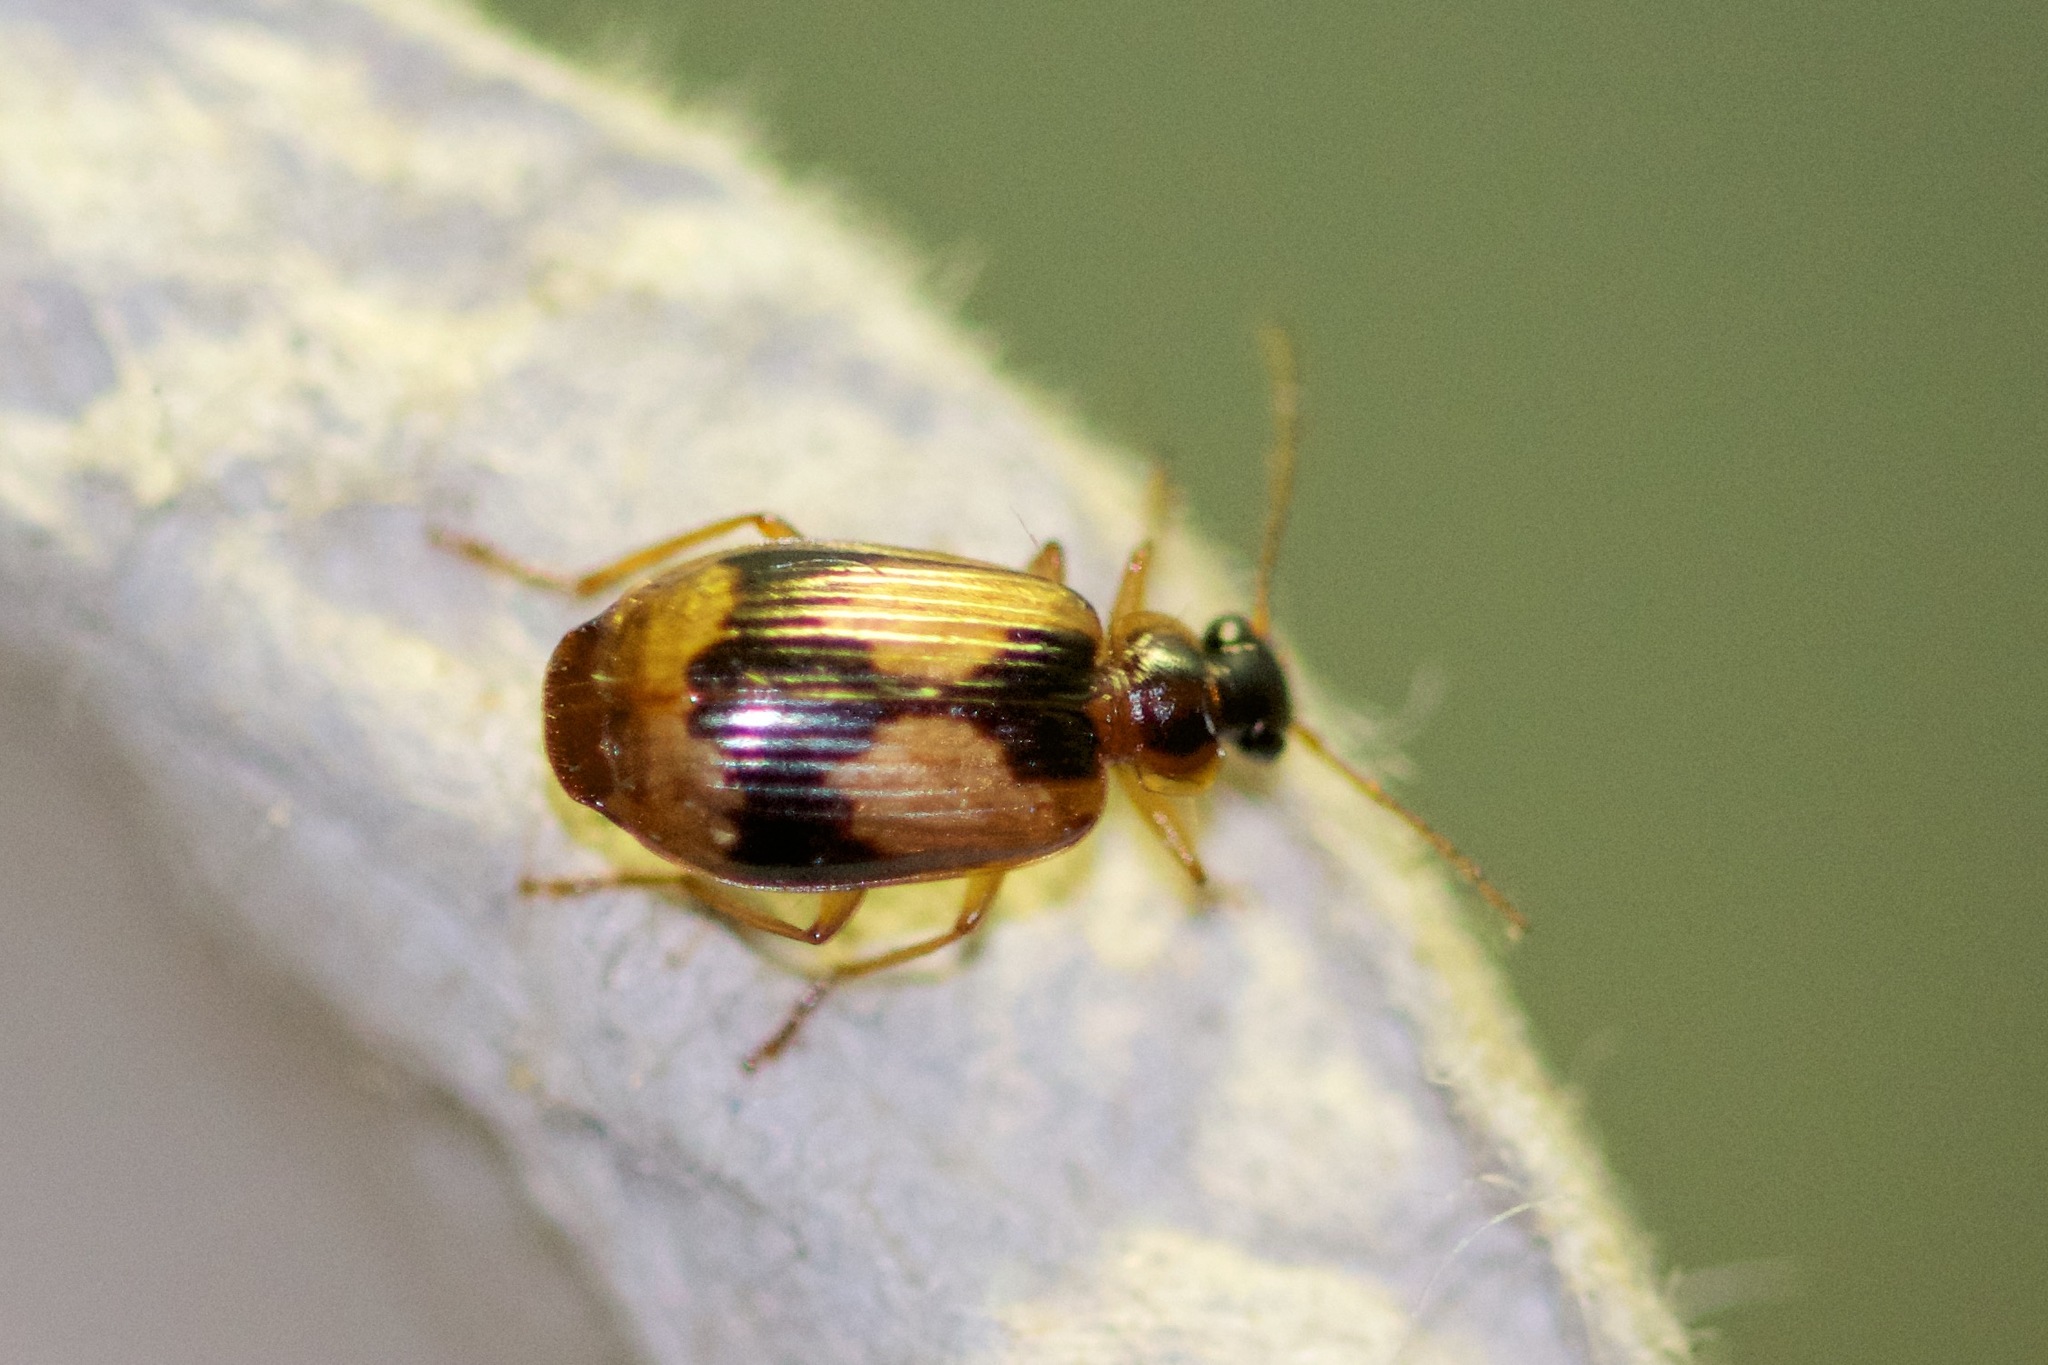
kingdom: Animalia
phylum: Arthropoda
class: Insecta
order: Coleoptera
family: Carabidae
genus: Lebia
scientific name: Lebia fuscata
